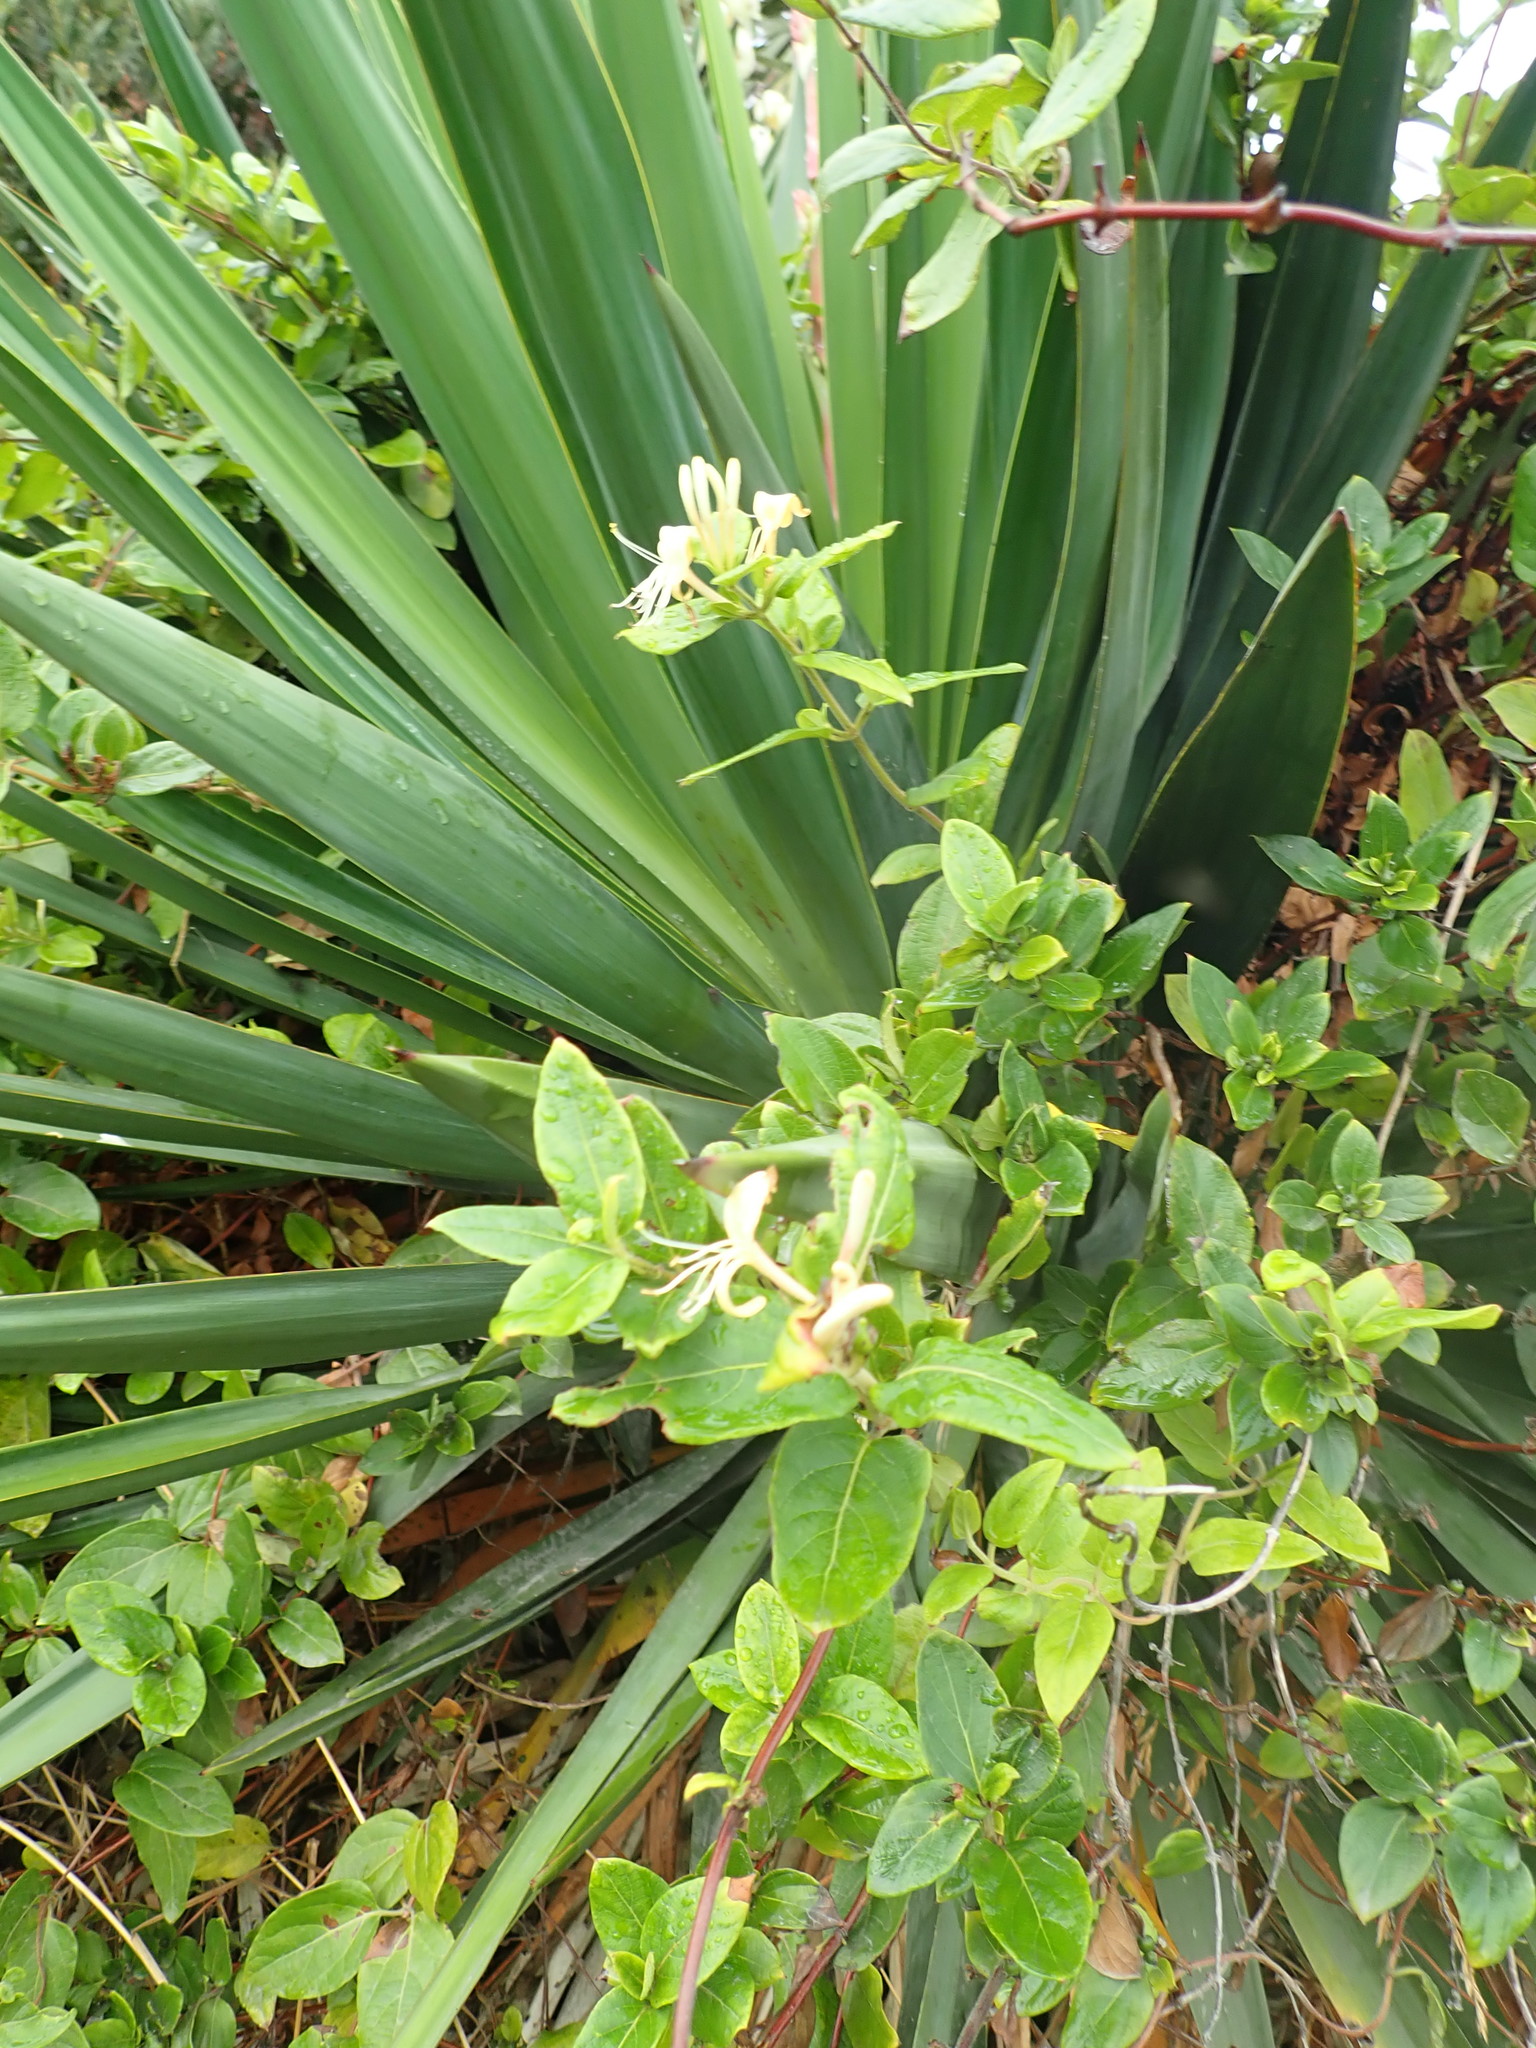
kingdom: Plantae
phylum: Tracheophyta
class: Magnoliopsida
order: Dipsacales
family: Caprifoliaceae
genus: Lonicera
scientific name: Lonicera japonica
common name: Japanese honeysuckle
